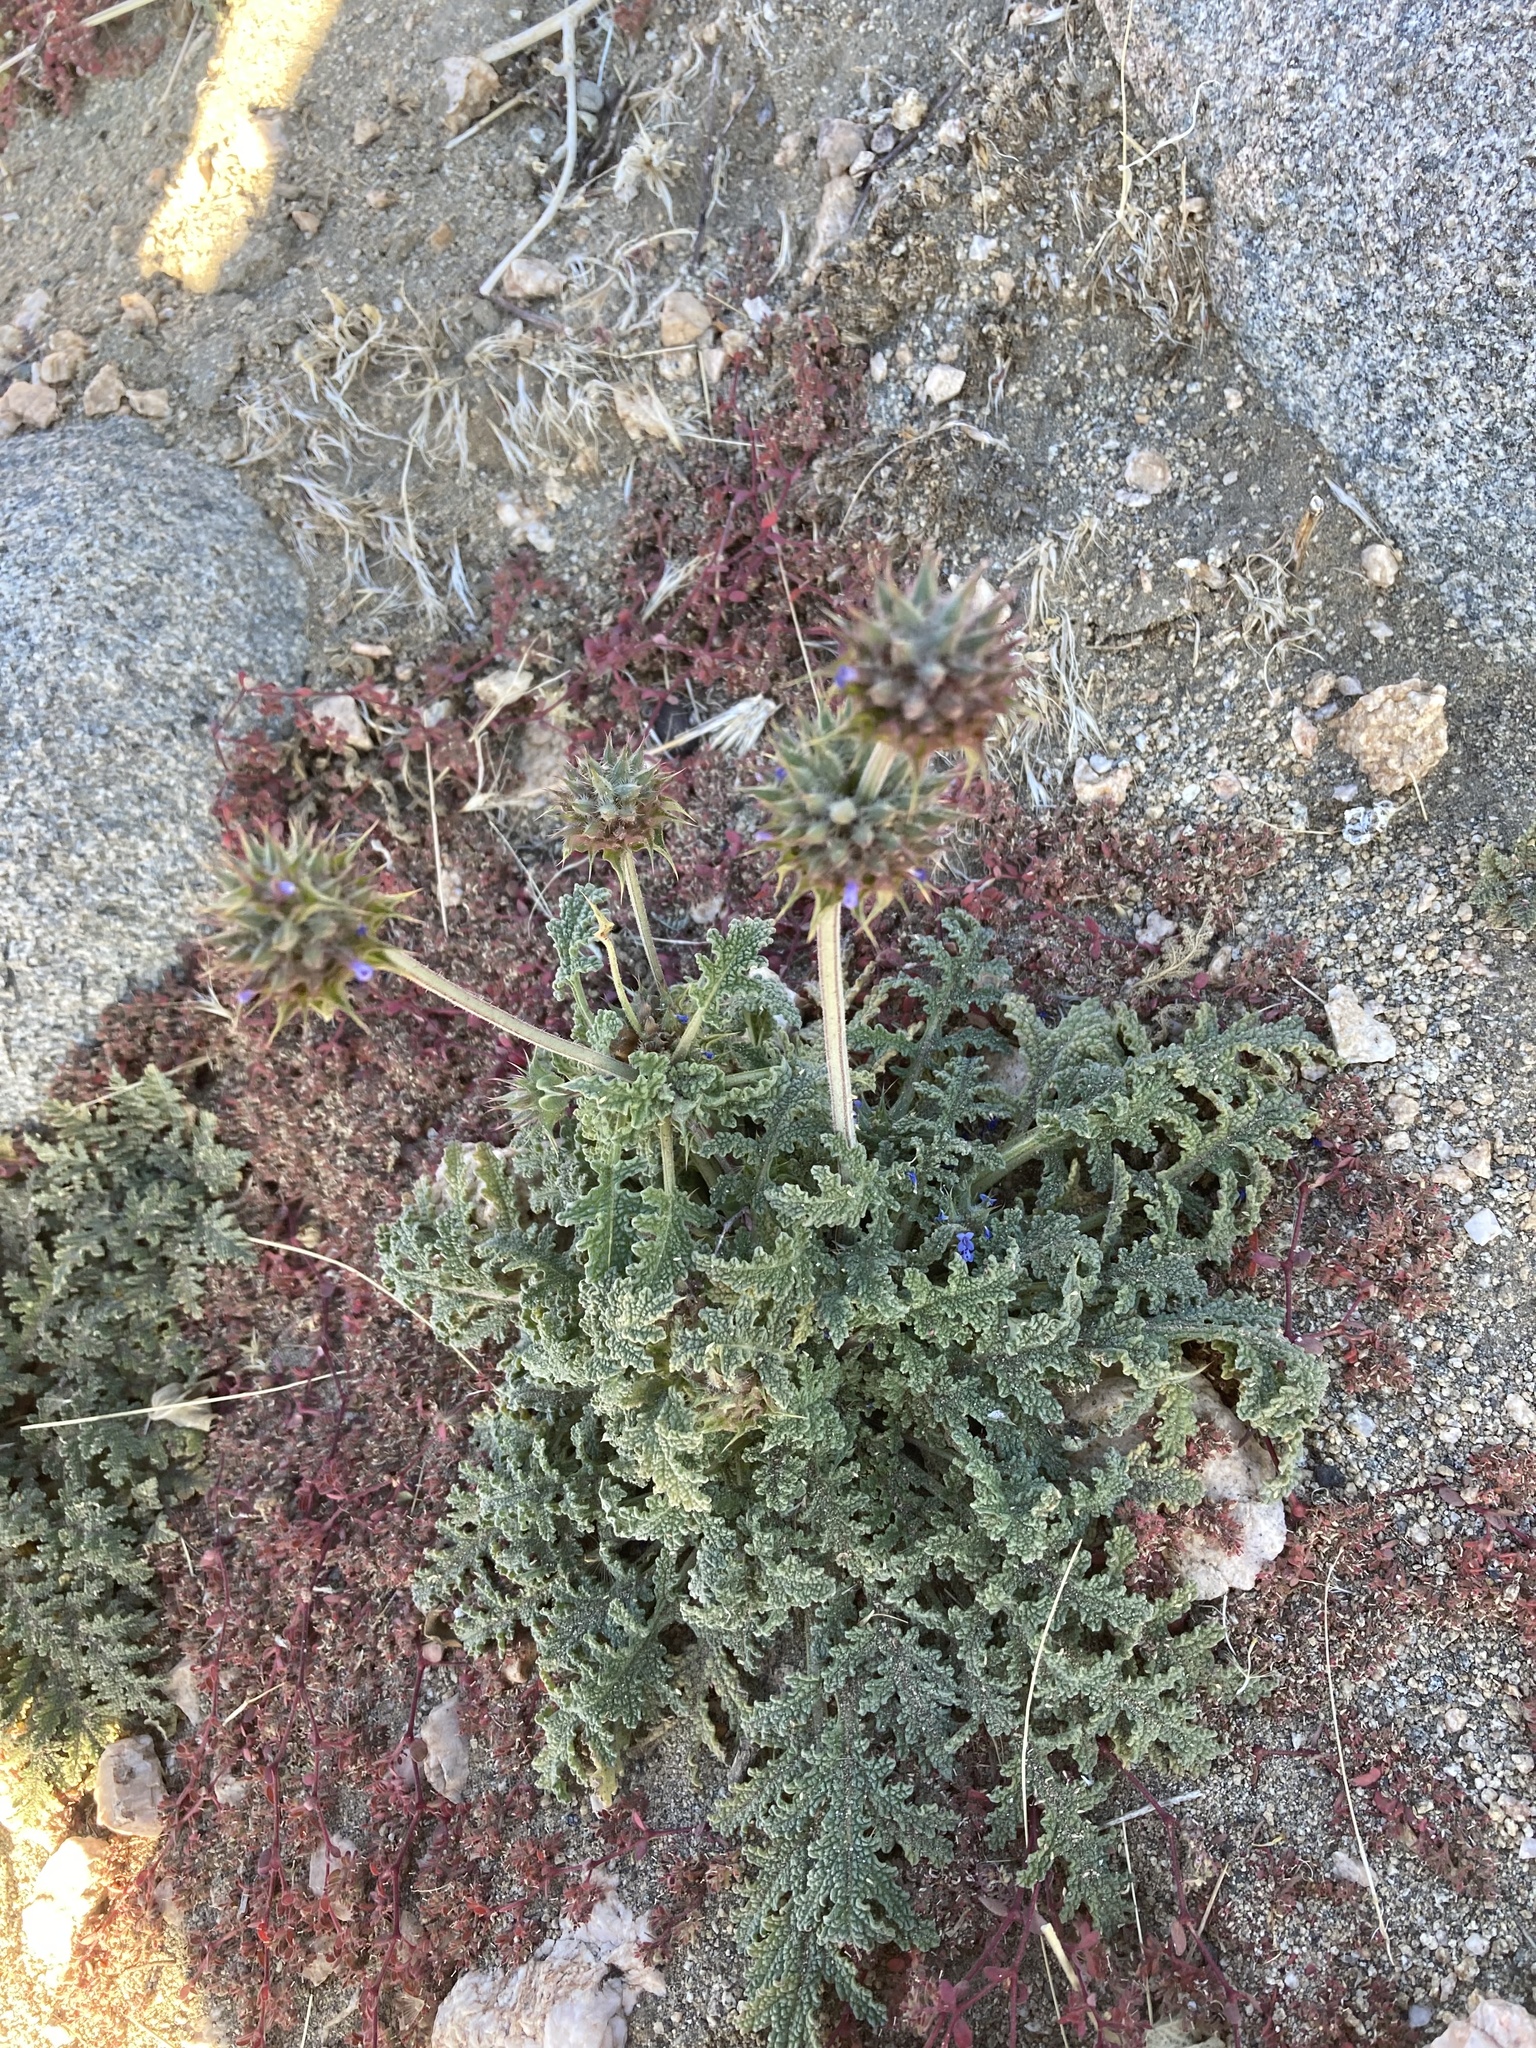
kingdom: Plantae
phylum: Tracheophyta
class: Magnoliopsida
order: Lamiales
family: Lamiaceae
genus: Salvia
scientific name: Salvia columbariae
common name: Chia
